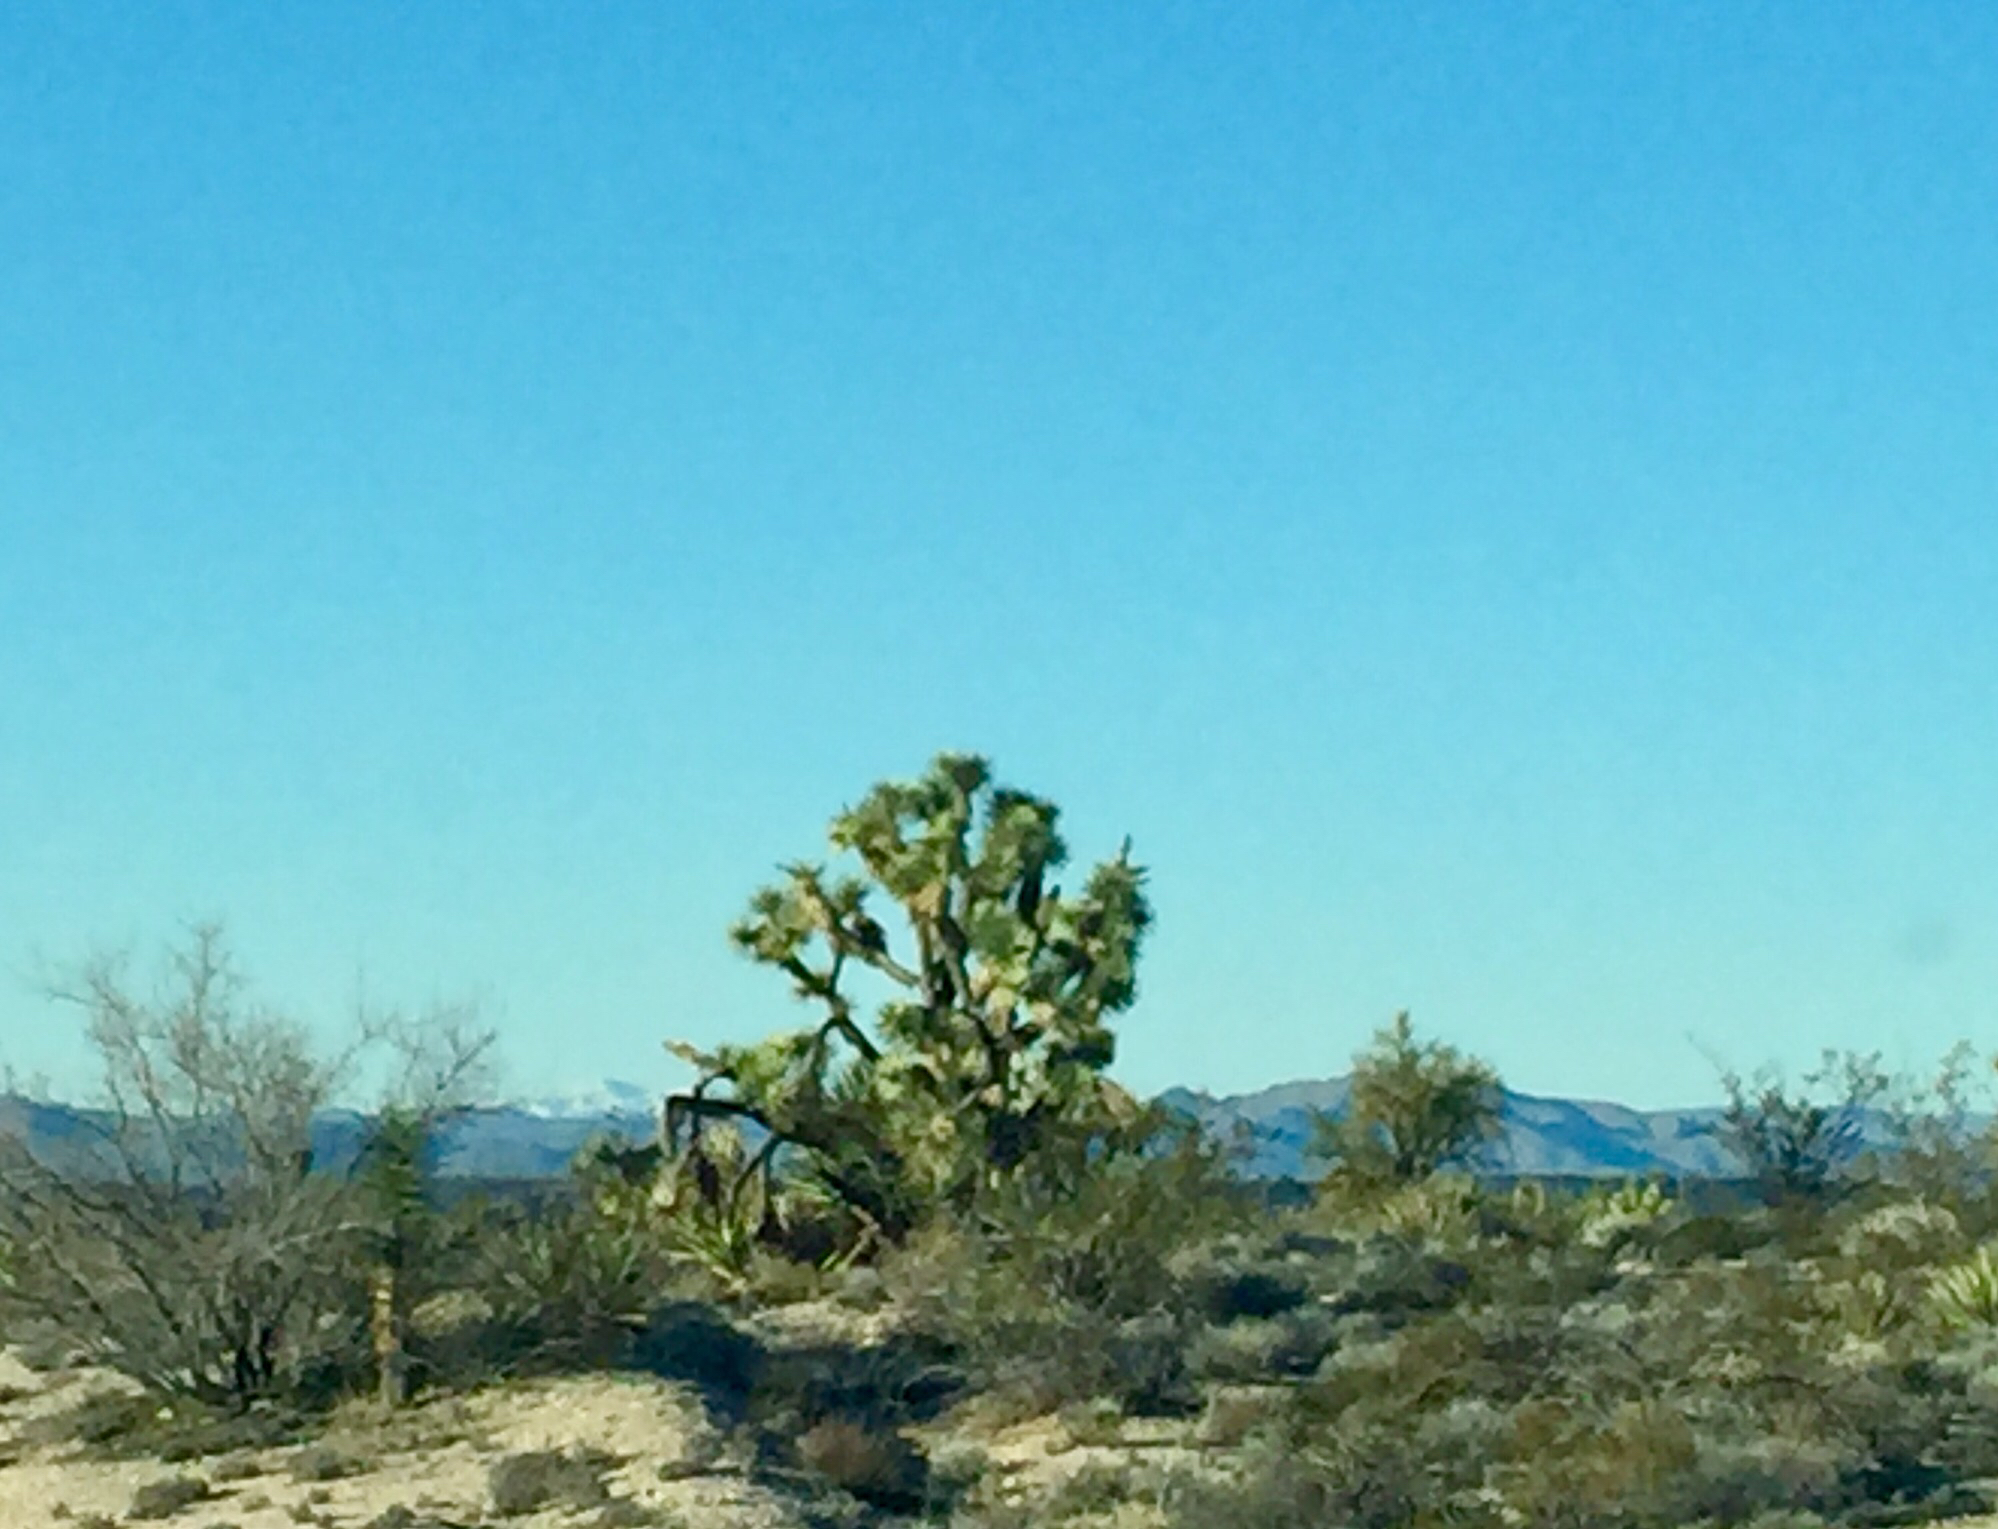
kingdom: Plantae
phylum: Tracheophyta
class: Liliopsida
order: Asparagales
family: Asparagaceae
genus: Yucca
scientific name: Yucca brevifolia
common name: Joshua tree
